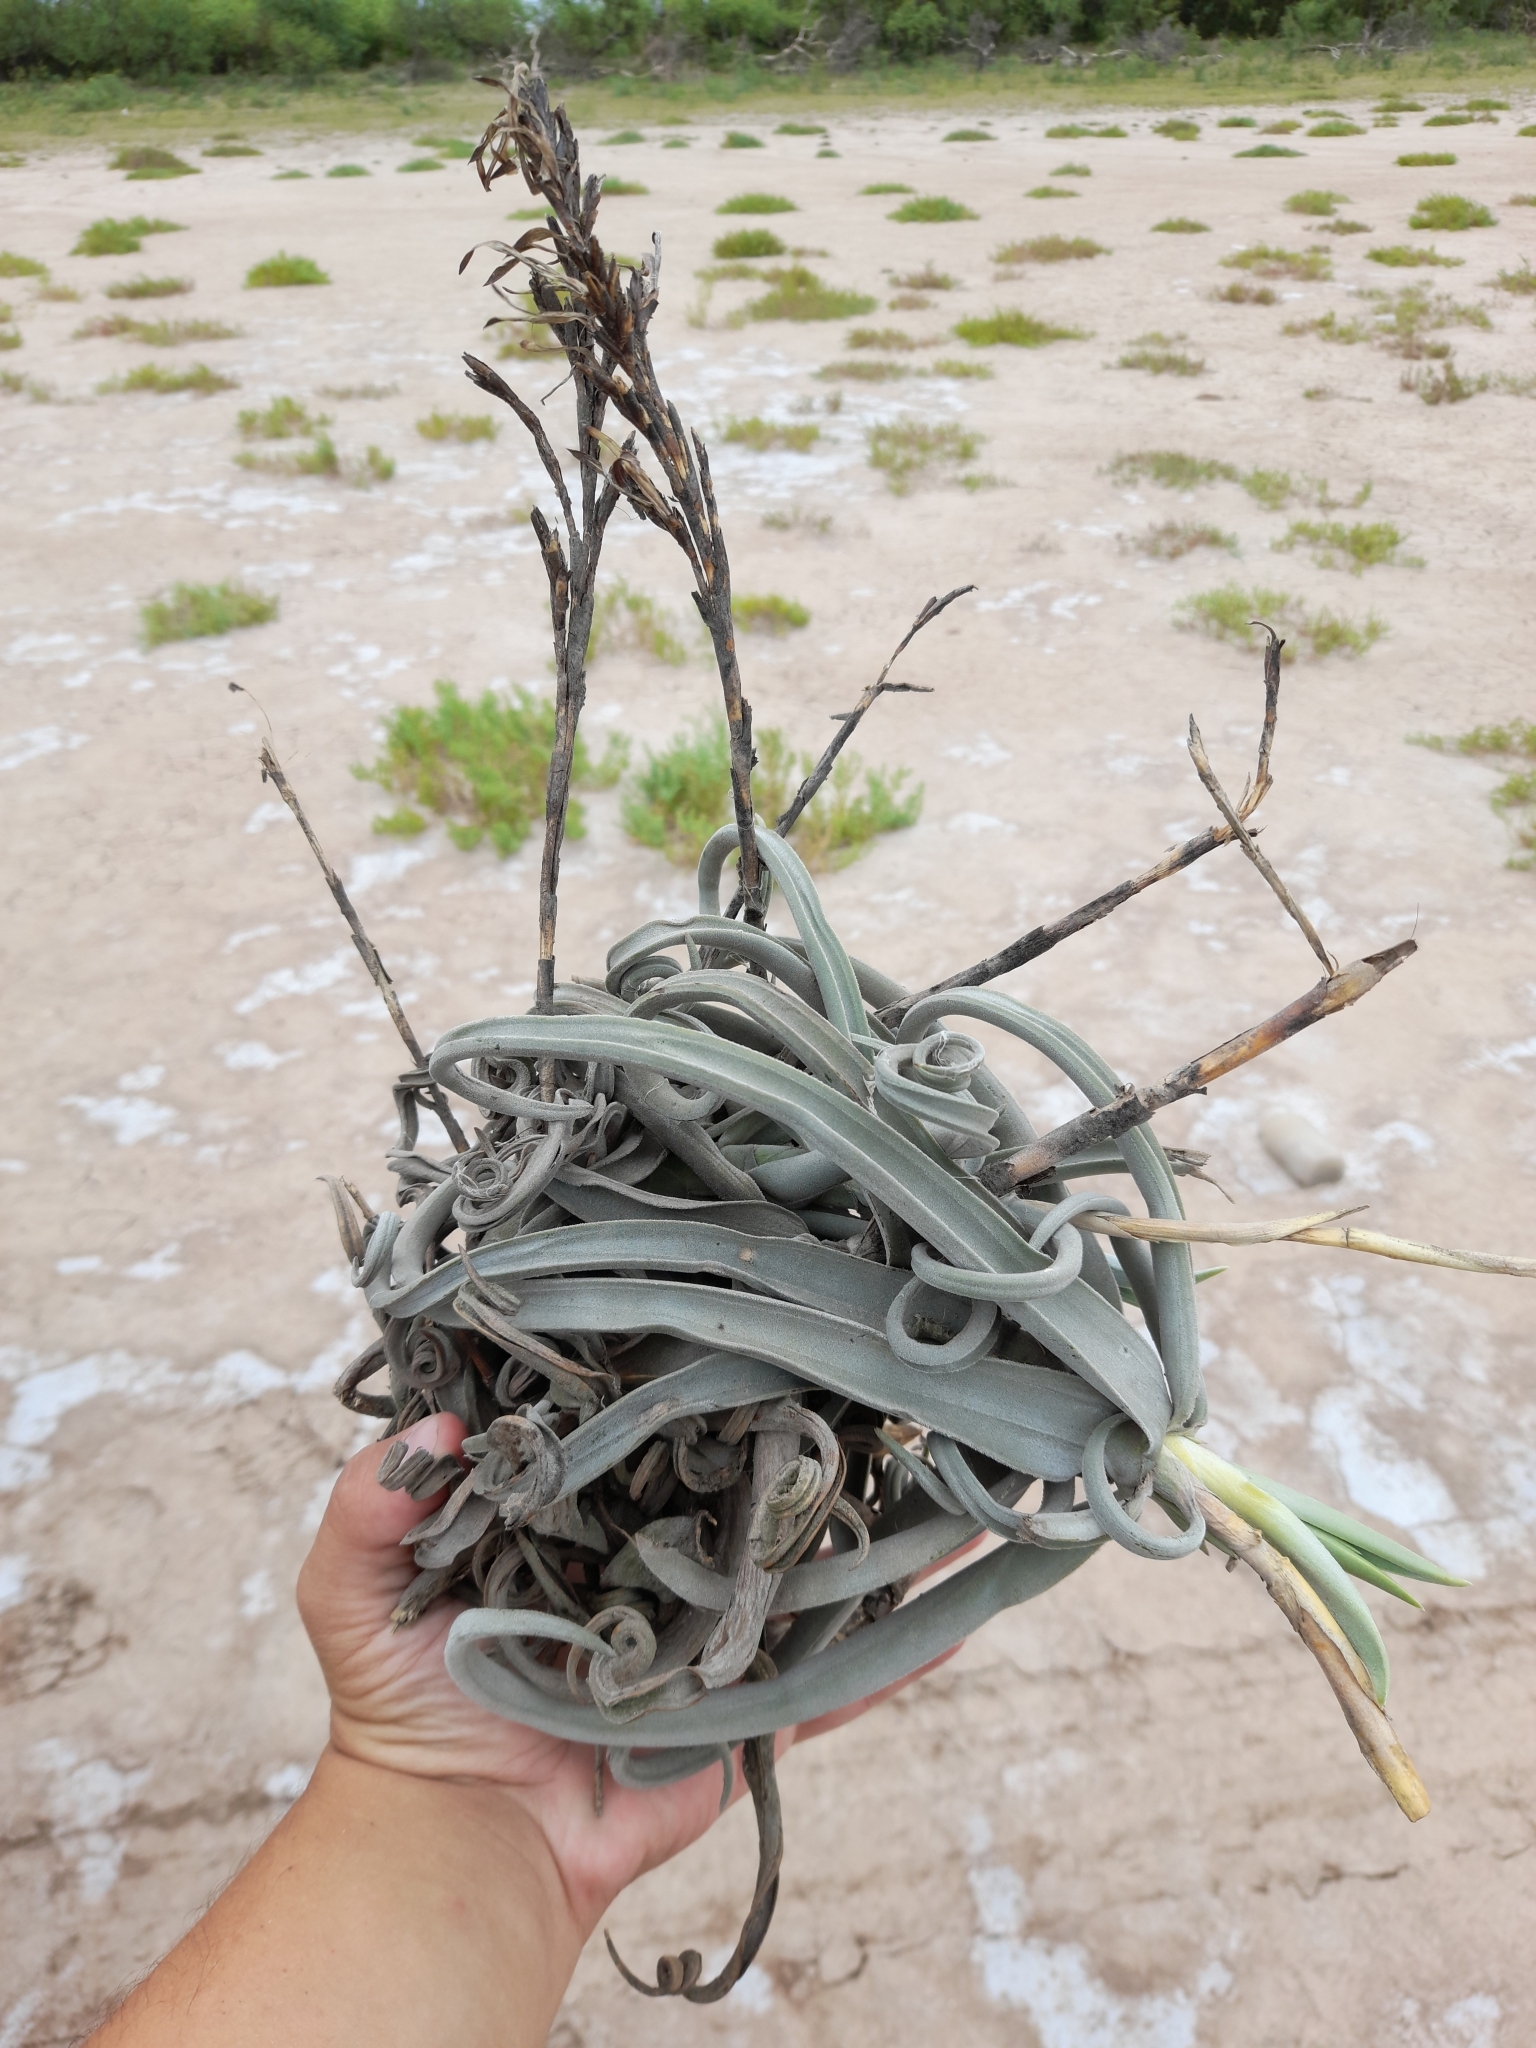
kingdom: Plantae
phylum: Tracheophyta
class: Liliopsida
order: Poales
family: Bromeliaceae
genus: Tillandsia
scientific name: Tillandsia duratii
